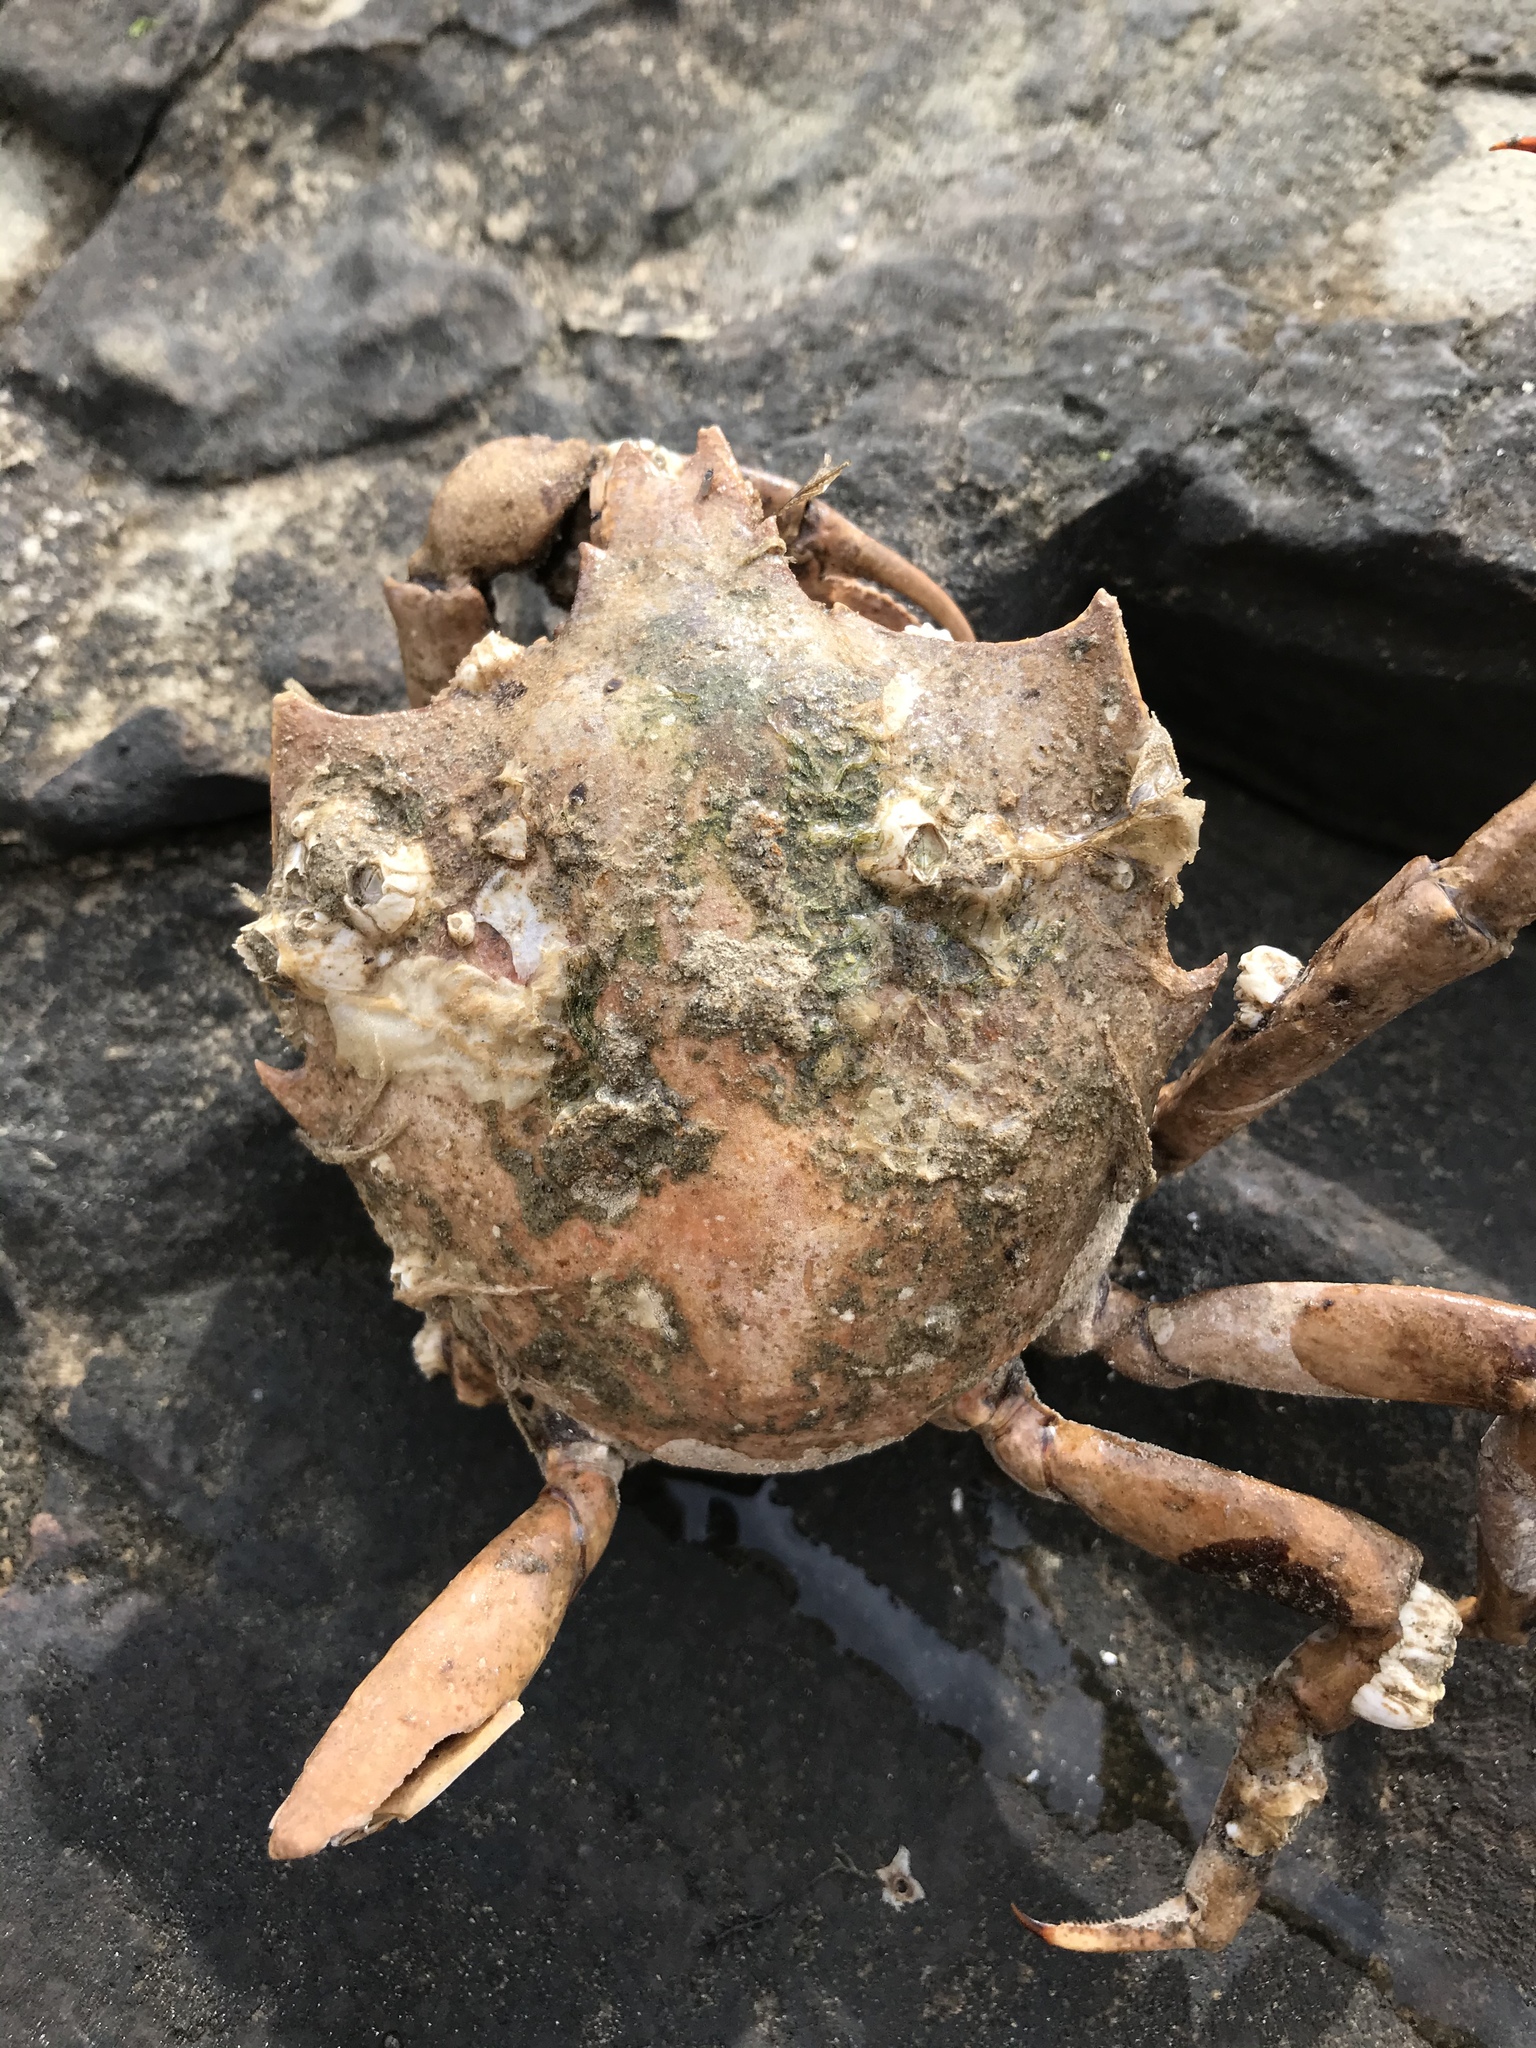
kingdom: Animalia
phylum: Arthropoda
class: Malacostraca
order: Decapoda
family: Epialtidae
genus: Pugettia
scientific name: Pugettia producta
